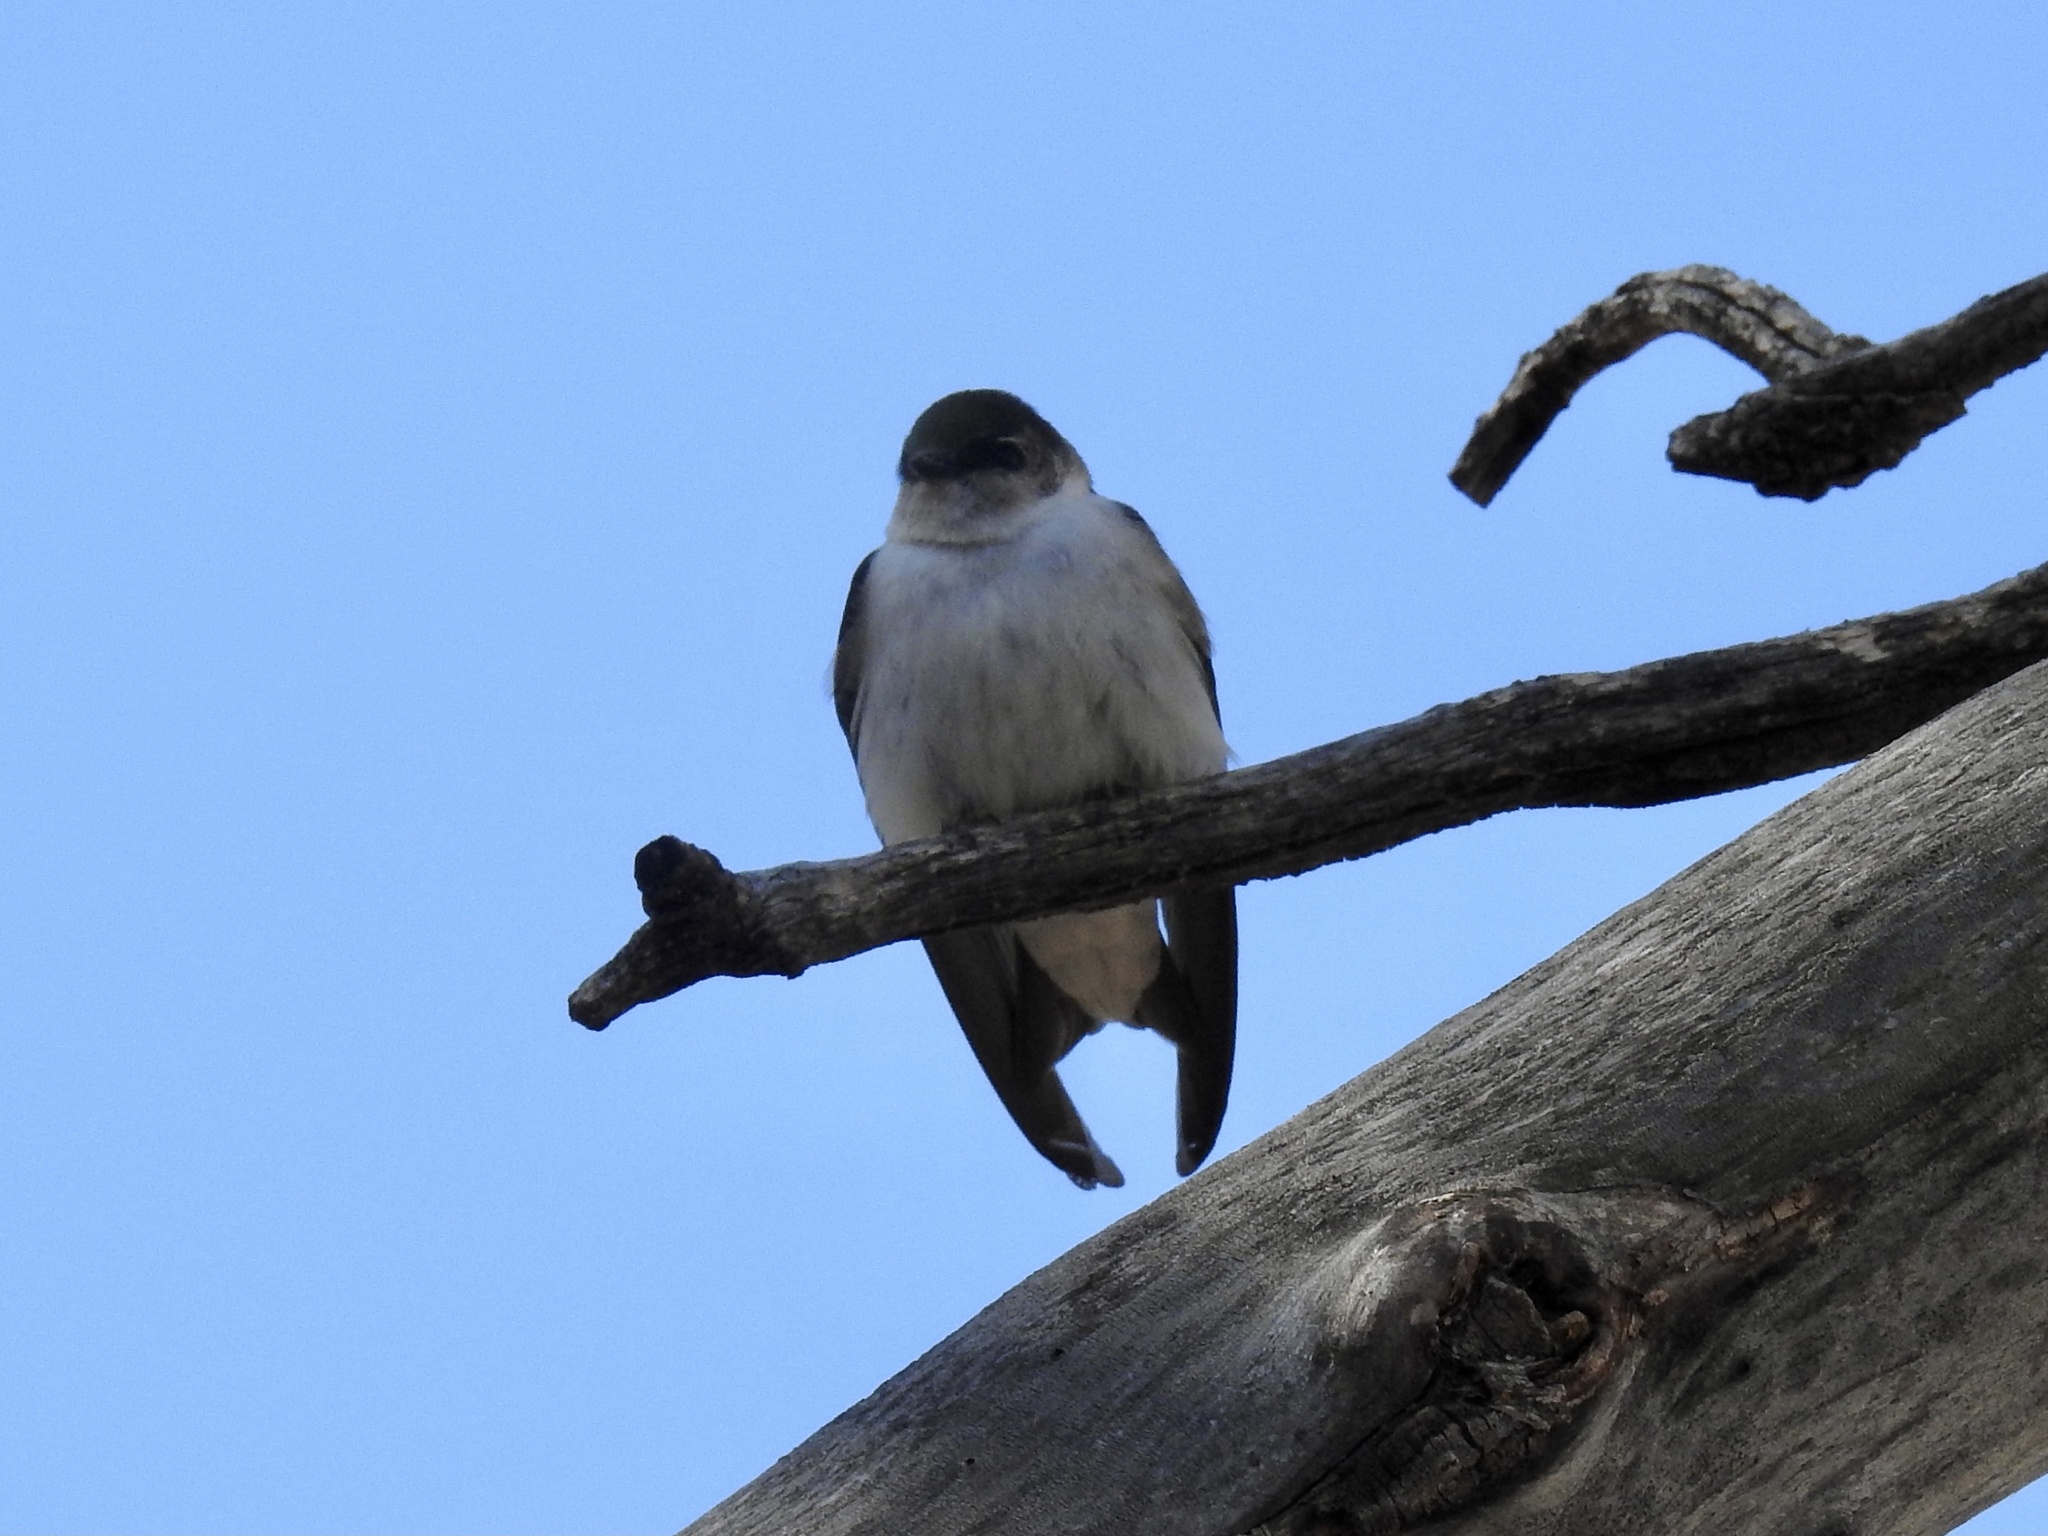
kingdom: Animalia
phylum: Chordata
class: Aves
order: Passeriformes
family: Hirundinidae
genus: Tachycineta
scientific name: Tachycineta thalassina
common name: Violet-green swallow
